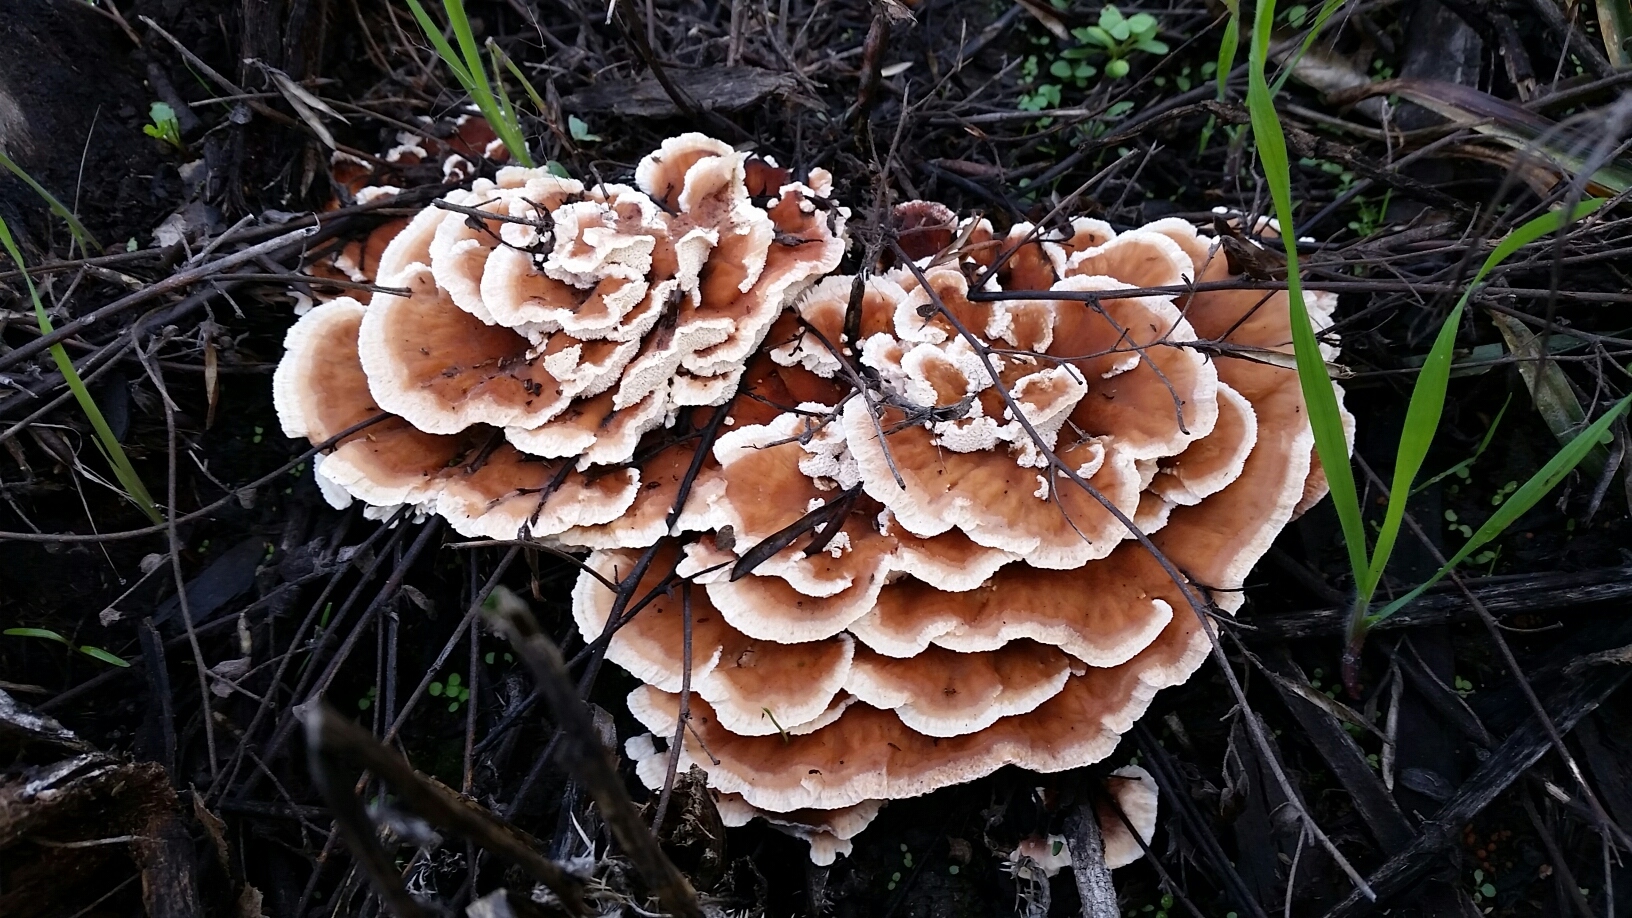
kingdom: Fungi
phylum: Basidiomycota
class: Agaricomycetes
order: Polyporales
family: Podoscyphaceae
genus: Abortiporus
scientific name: Abortiporus biennis
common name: Blushing rosette
